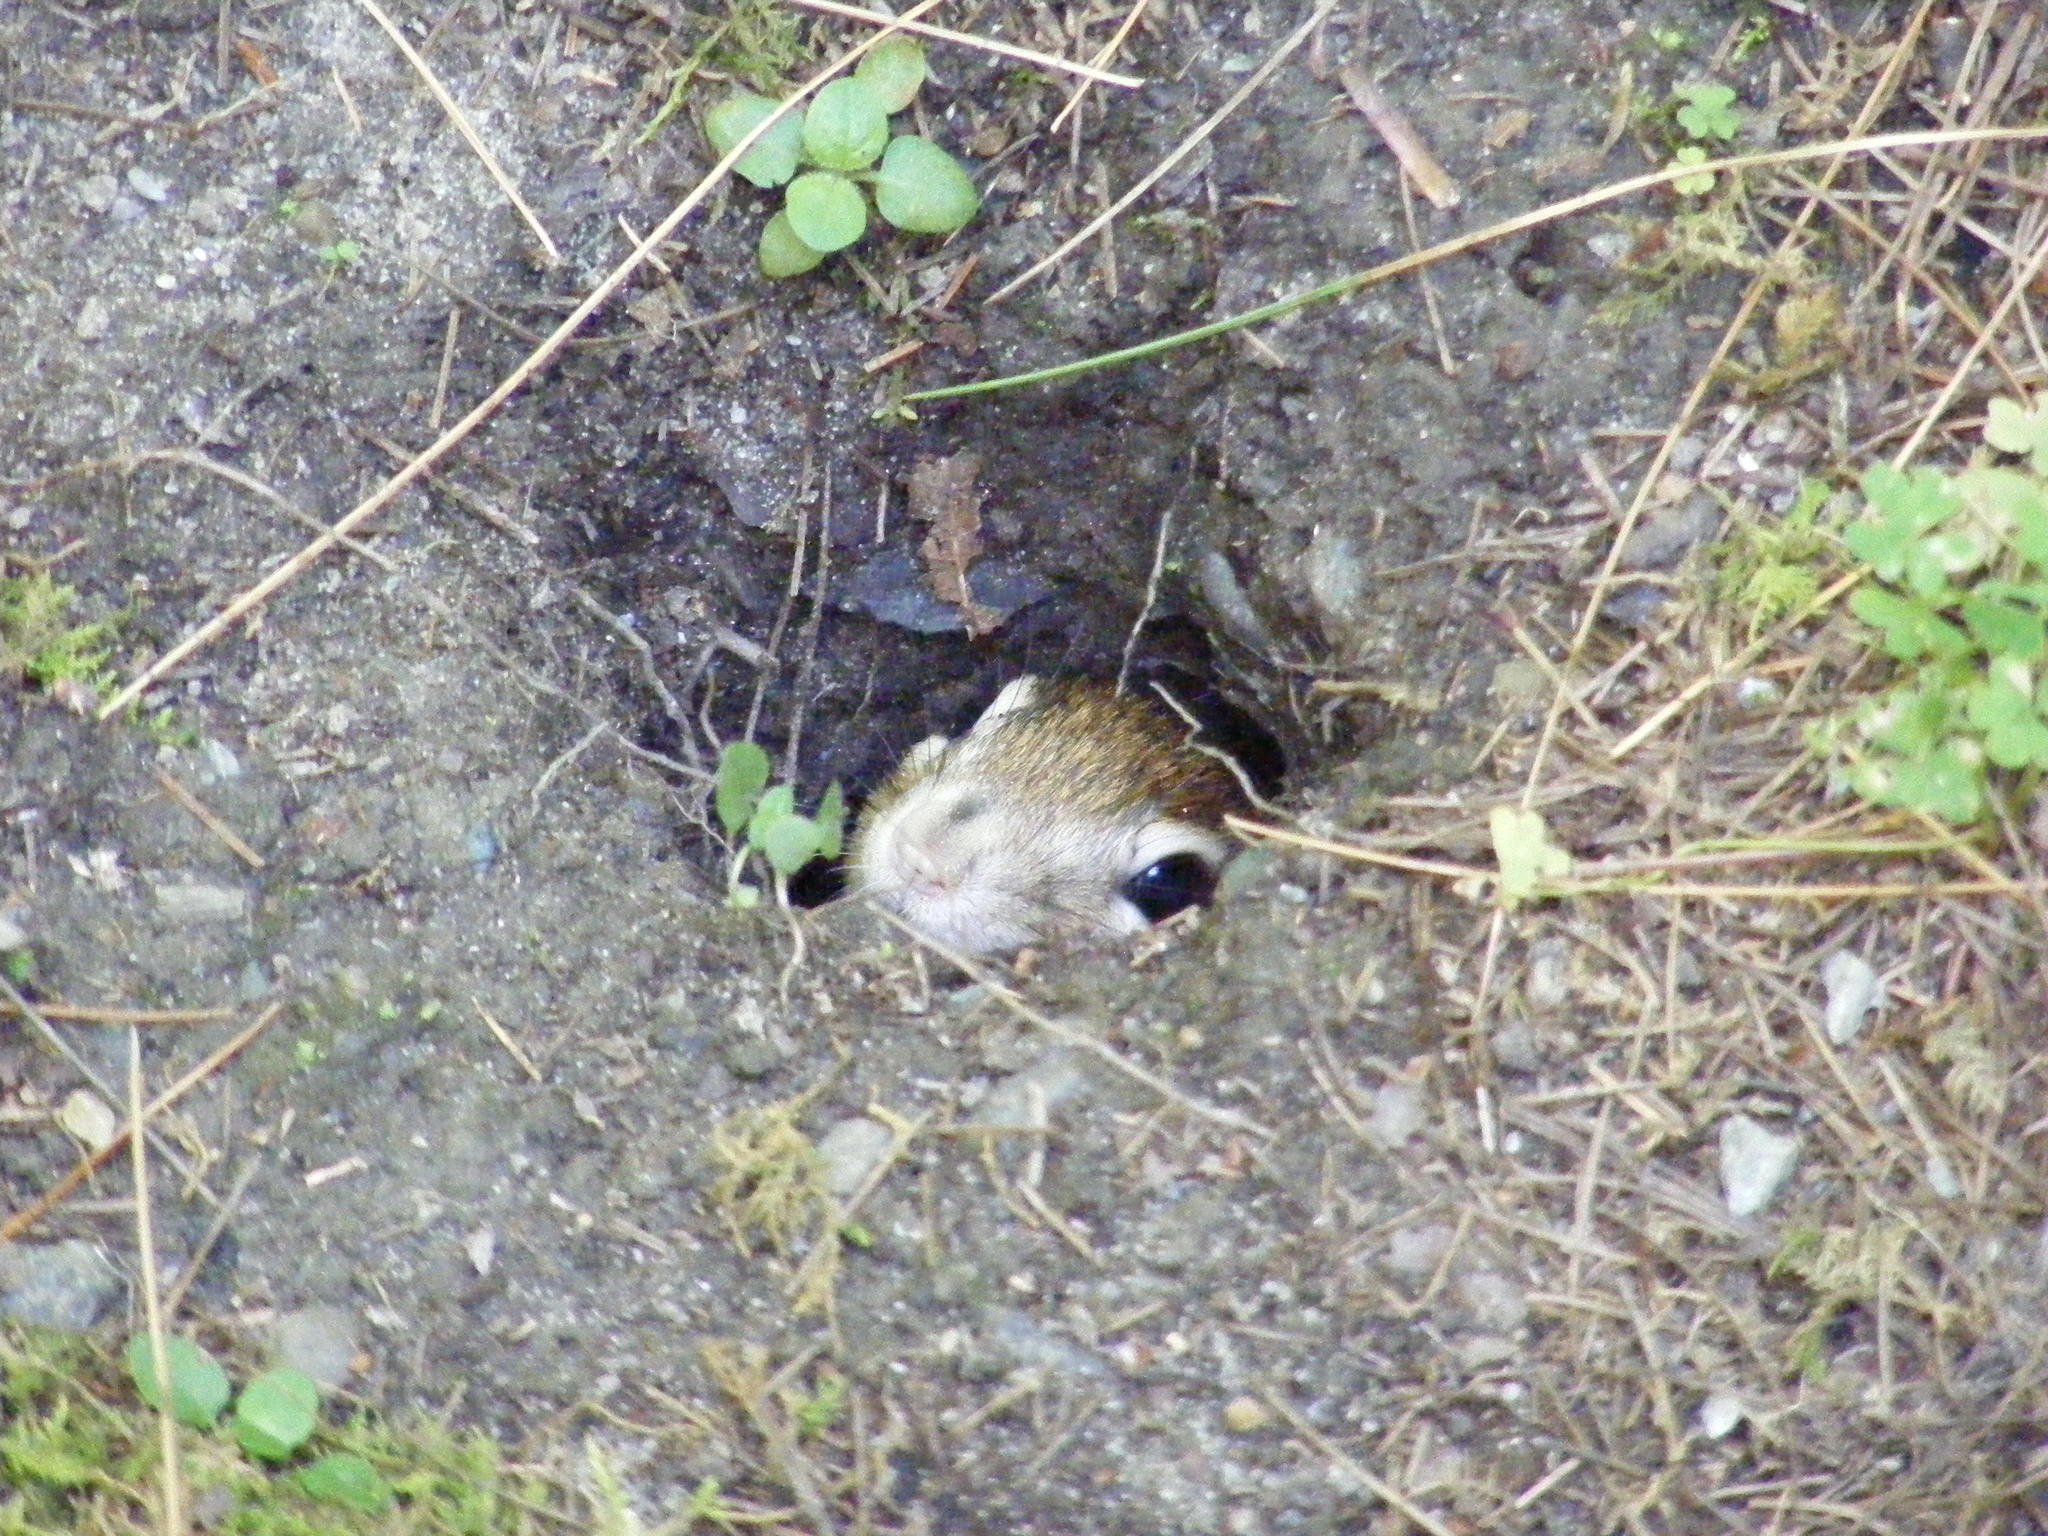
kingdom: Animalia
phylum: Chordata
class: Mammalia
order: Rodentia
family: Sciuridae
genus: Tamias
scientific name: Tamias striatus
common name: Eastern chipmunk
